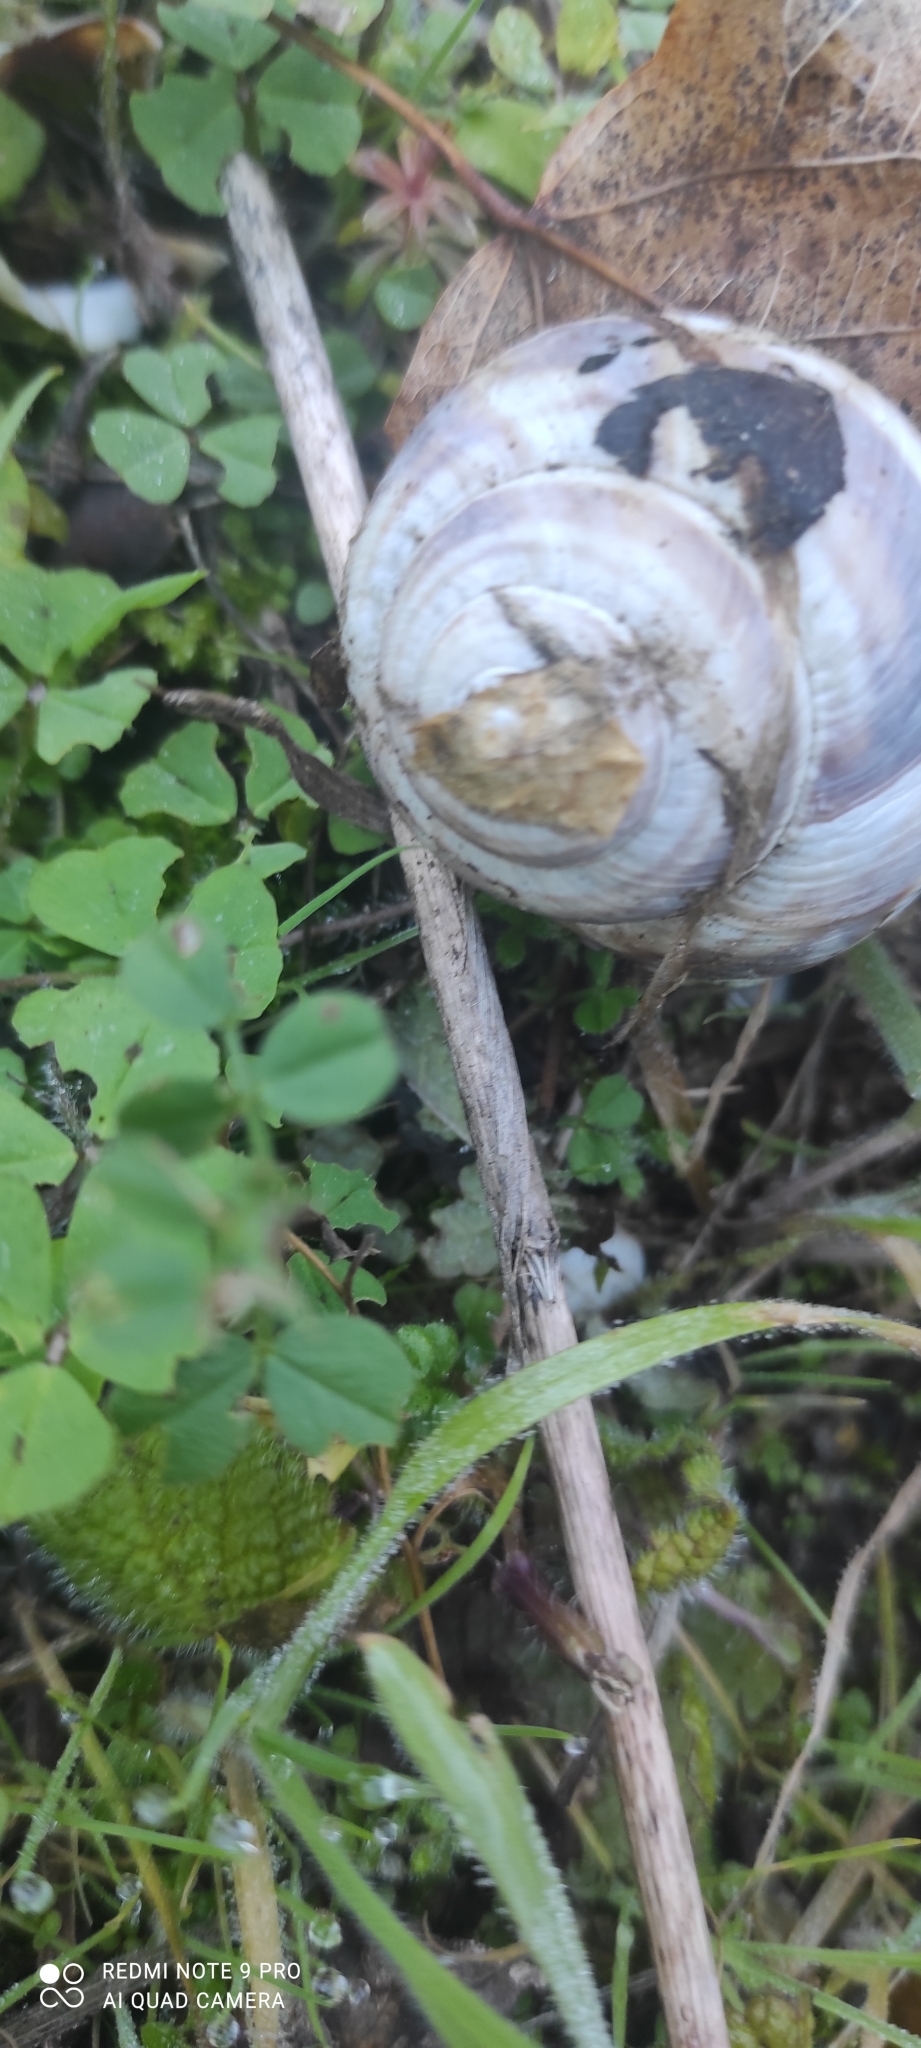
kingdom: Animalia
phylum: Mollusca
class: Gastropoda
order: Stylommatophora
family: Helicidae
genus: Helix
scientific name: Helix straminea
